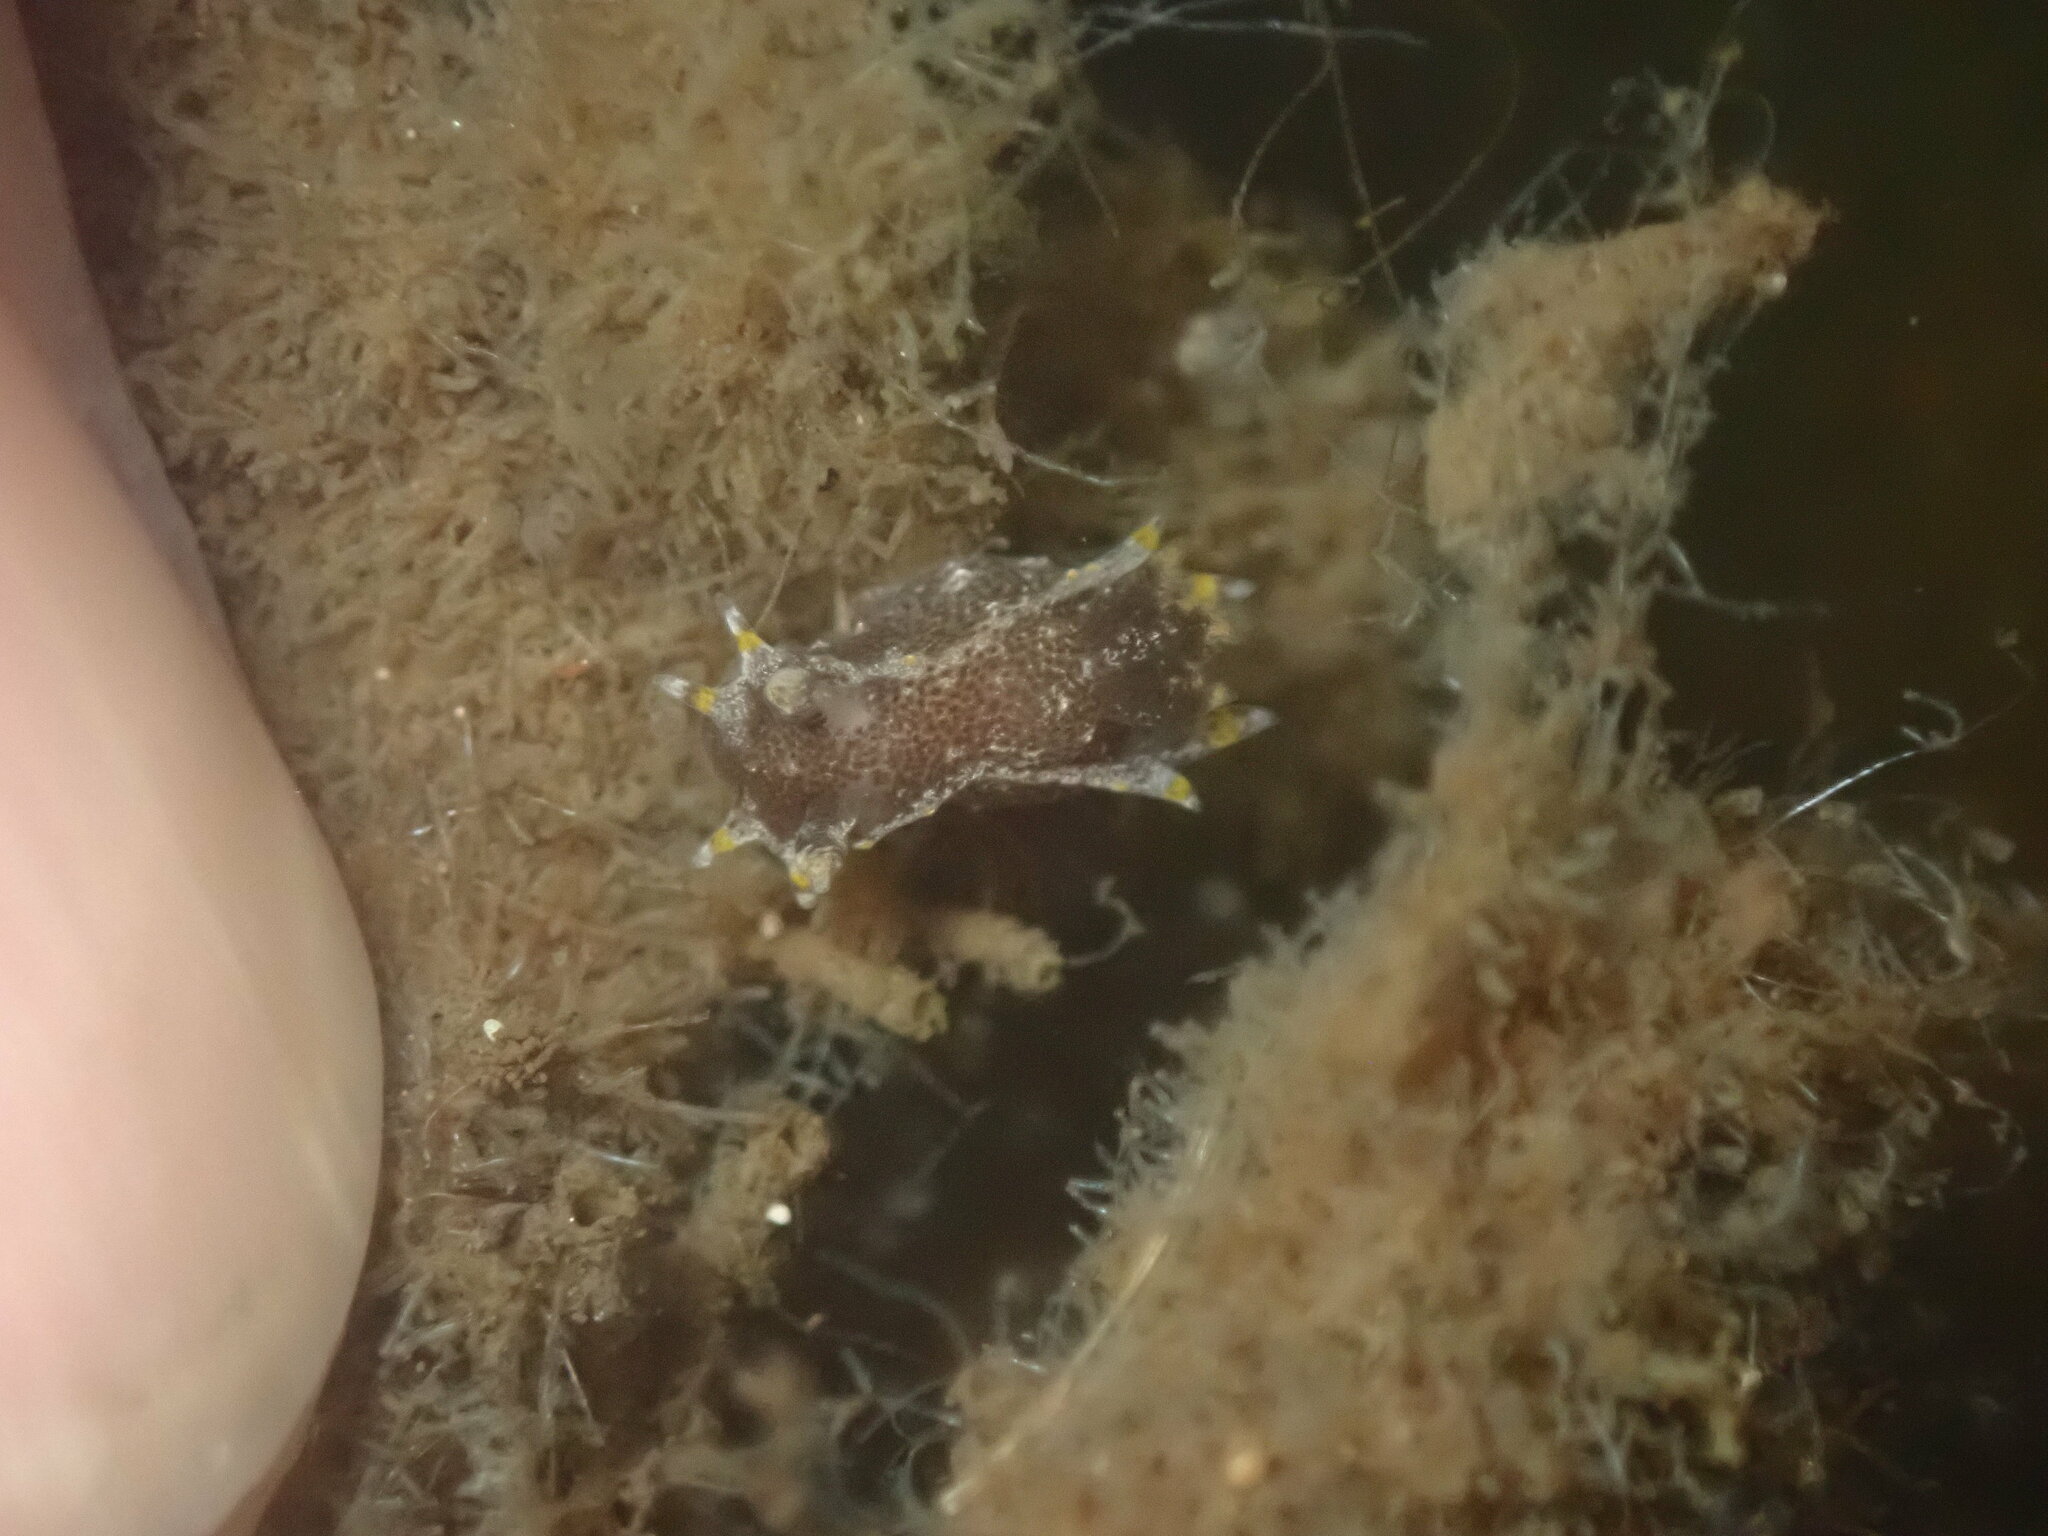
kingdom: Animalia
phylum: Mollusca
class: Gastropoda
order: Nudibranchia
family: Polyceridae
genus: Polycera
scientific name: Polycera hedgpethi
